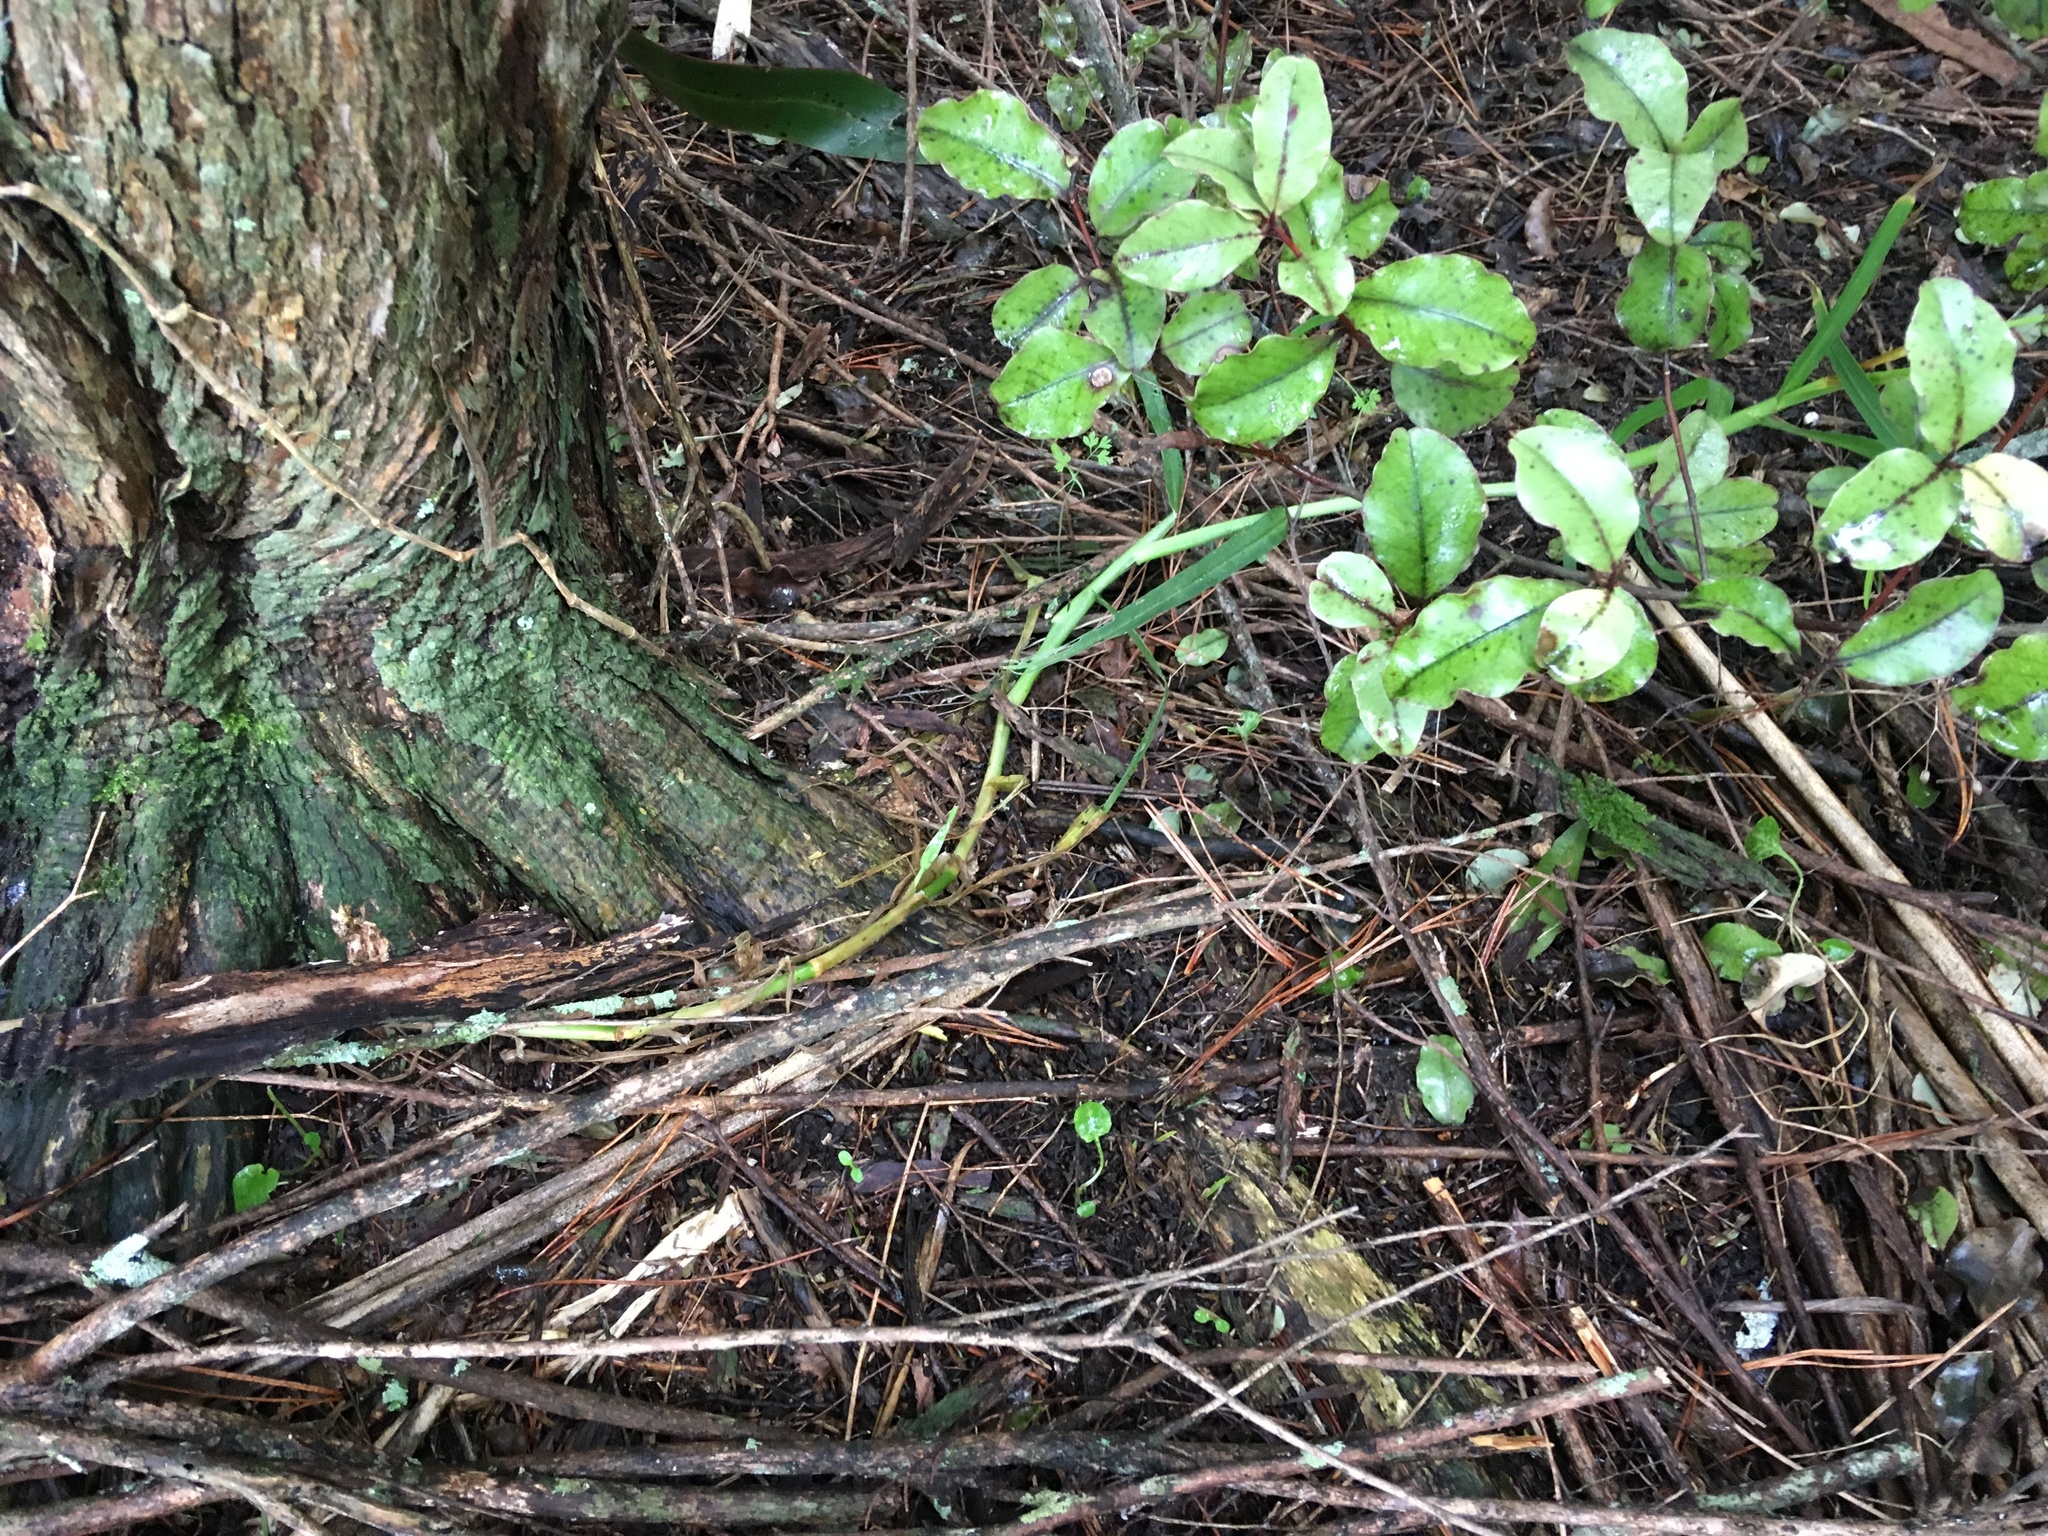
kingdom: Plantae
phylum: Tracheophyta
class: Liliopsida
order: Poales
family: Poaceae
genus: Cenchrus
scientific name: Cenchrus clandestinus
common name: Kikuyugrass
